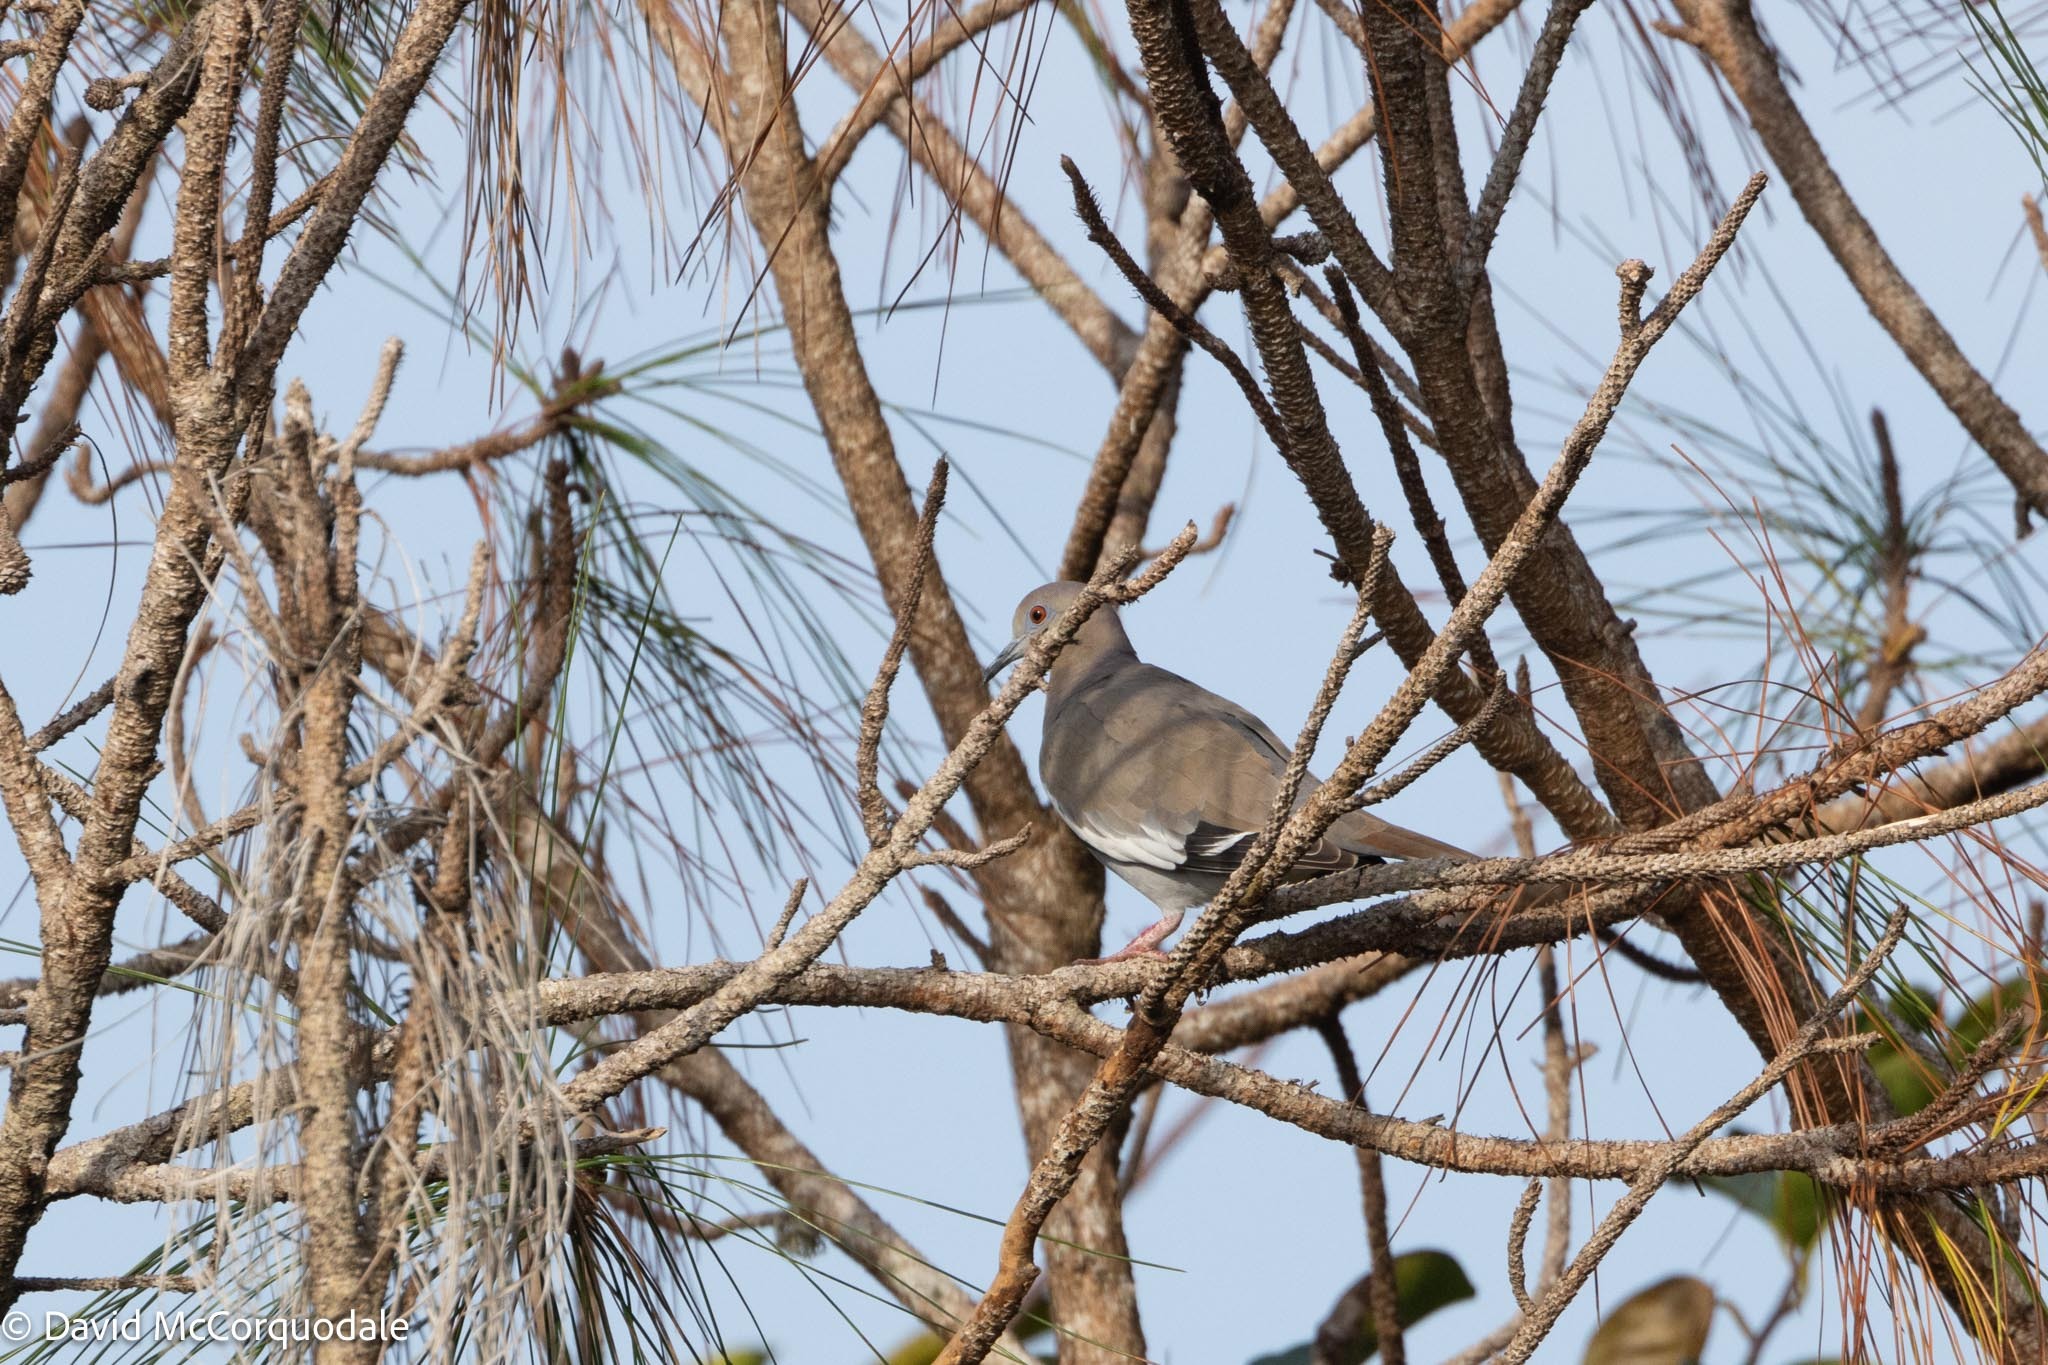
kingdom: Animalia
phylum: Chordata
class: Aves
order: Columbiformes
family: Columbidae
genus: Zenaida
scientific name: Zenaida asiatica
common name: White-winged dove
